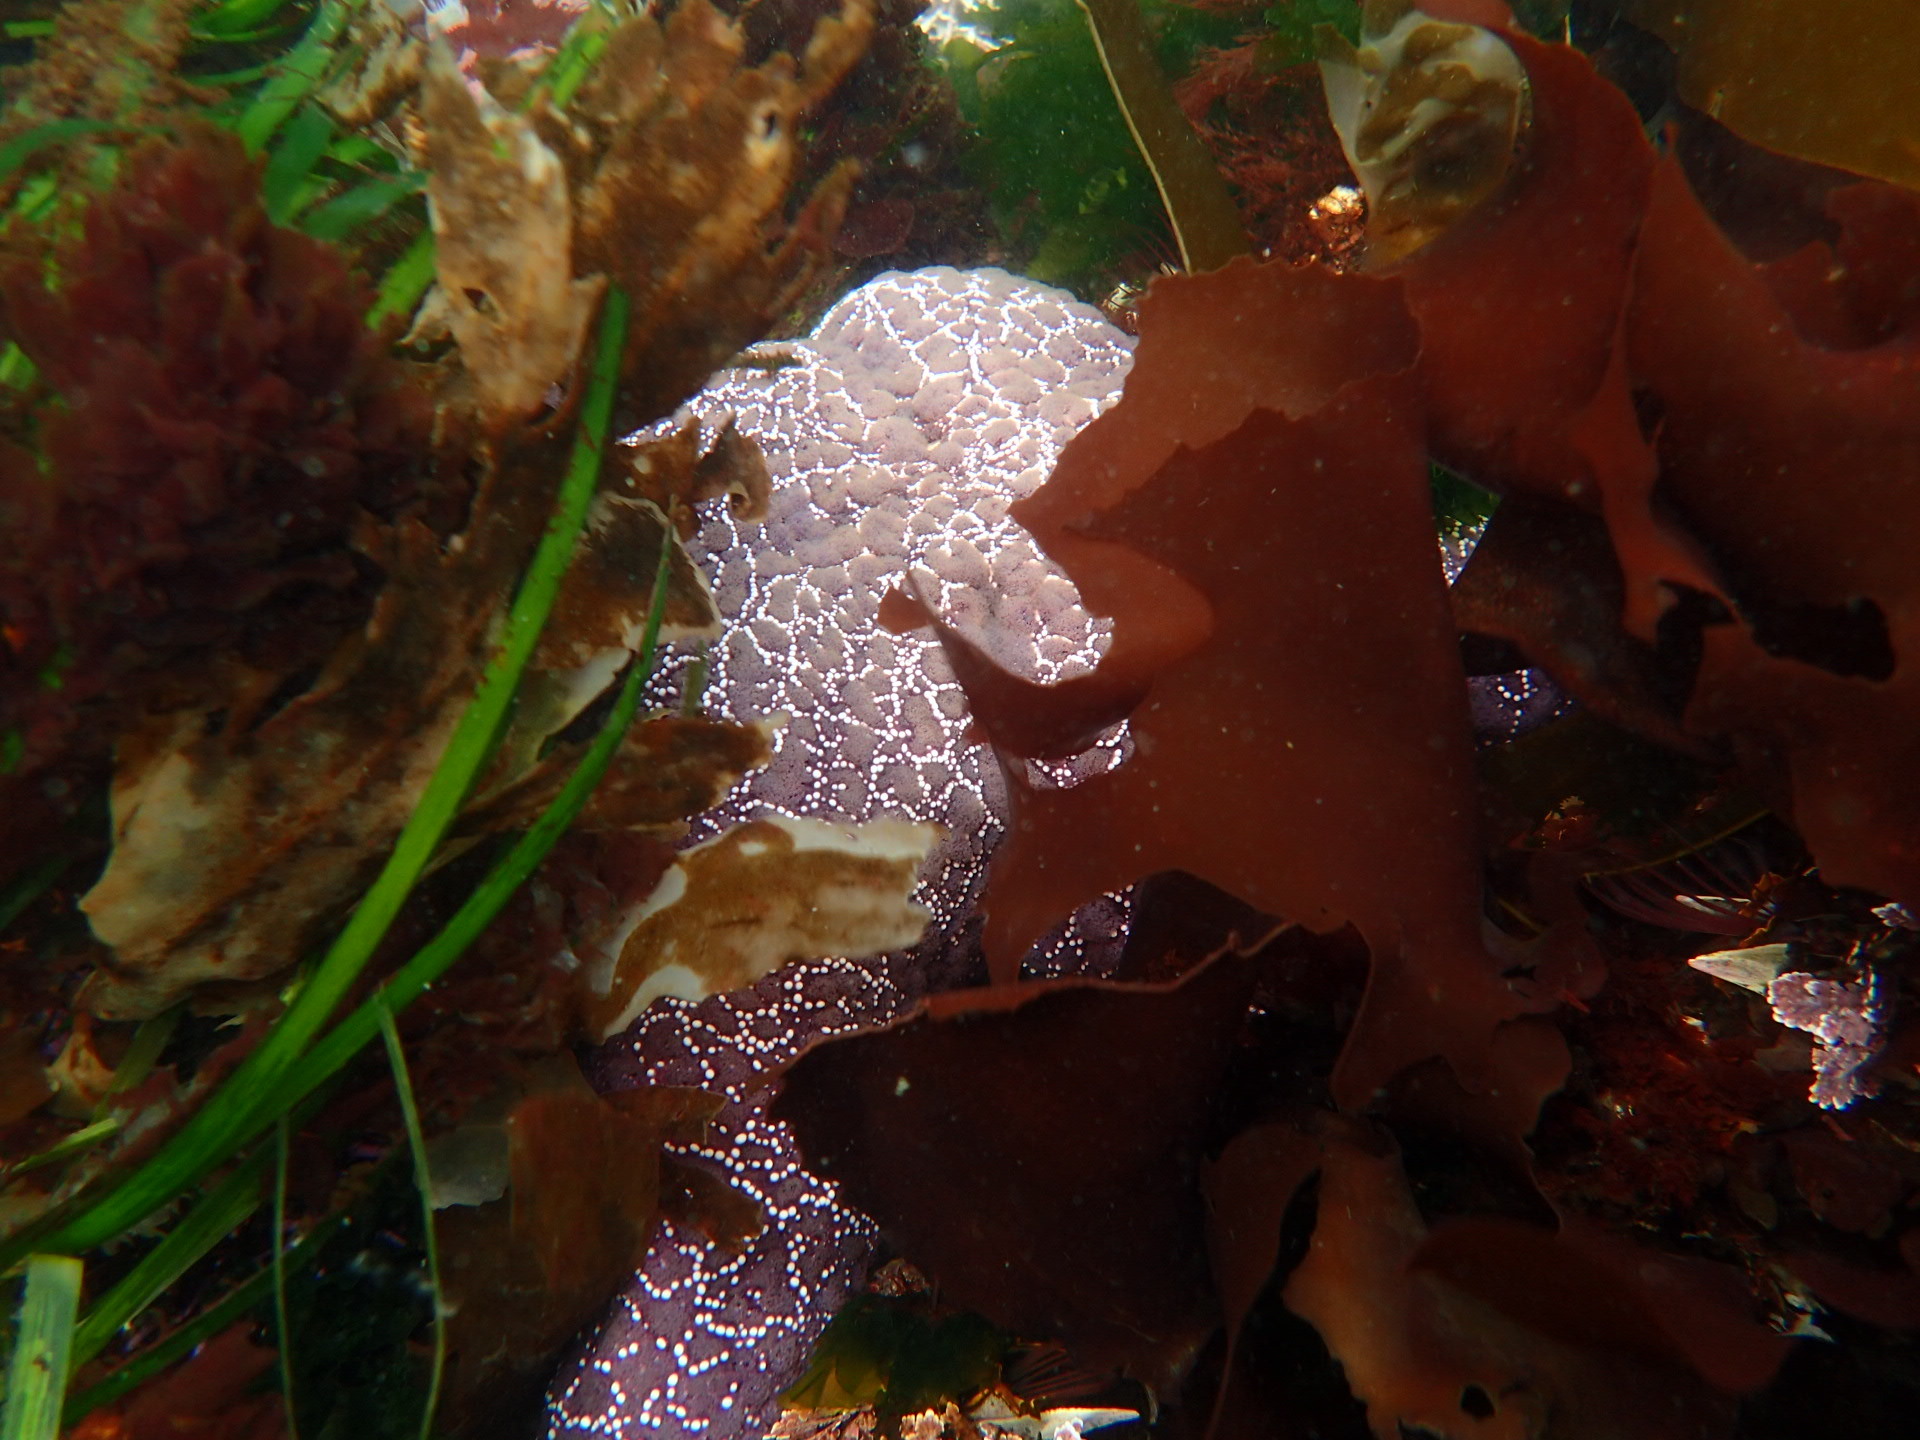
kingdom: Animalia
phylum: Echinodermata
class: Asteroidea
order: Forcipulatida
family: Asteriidae
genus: Pisaster
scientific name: Pisaster ochraceus
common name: Ochre stars
